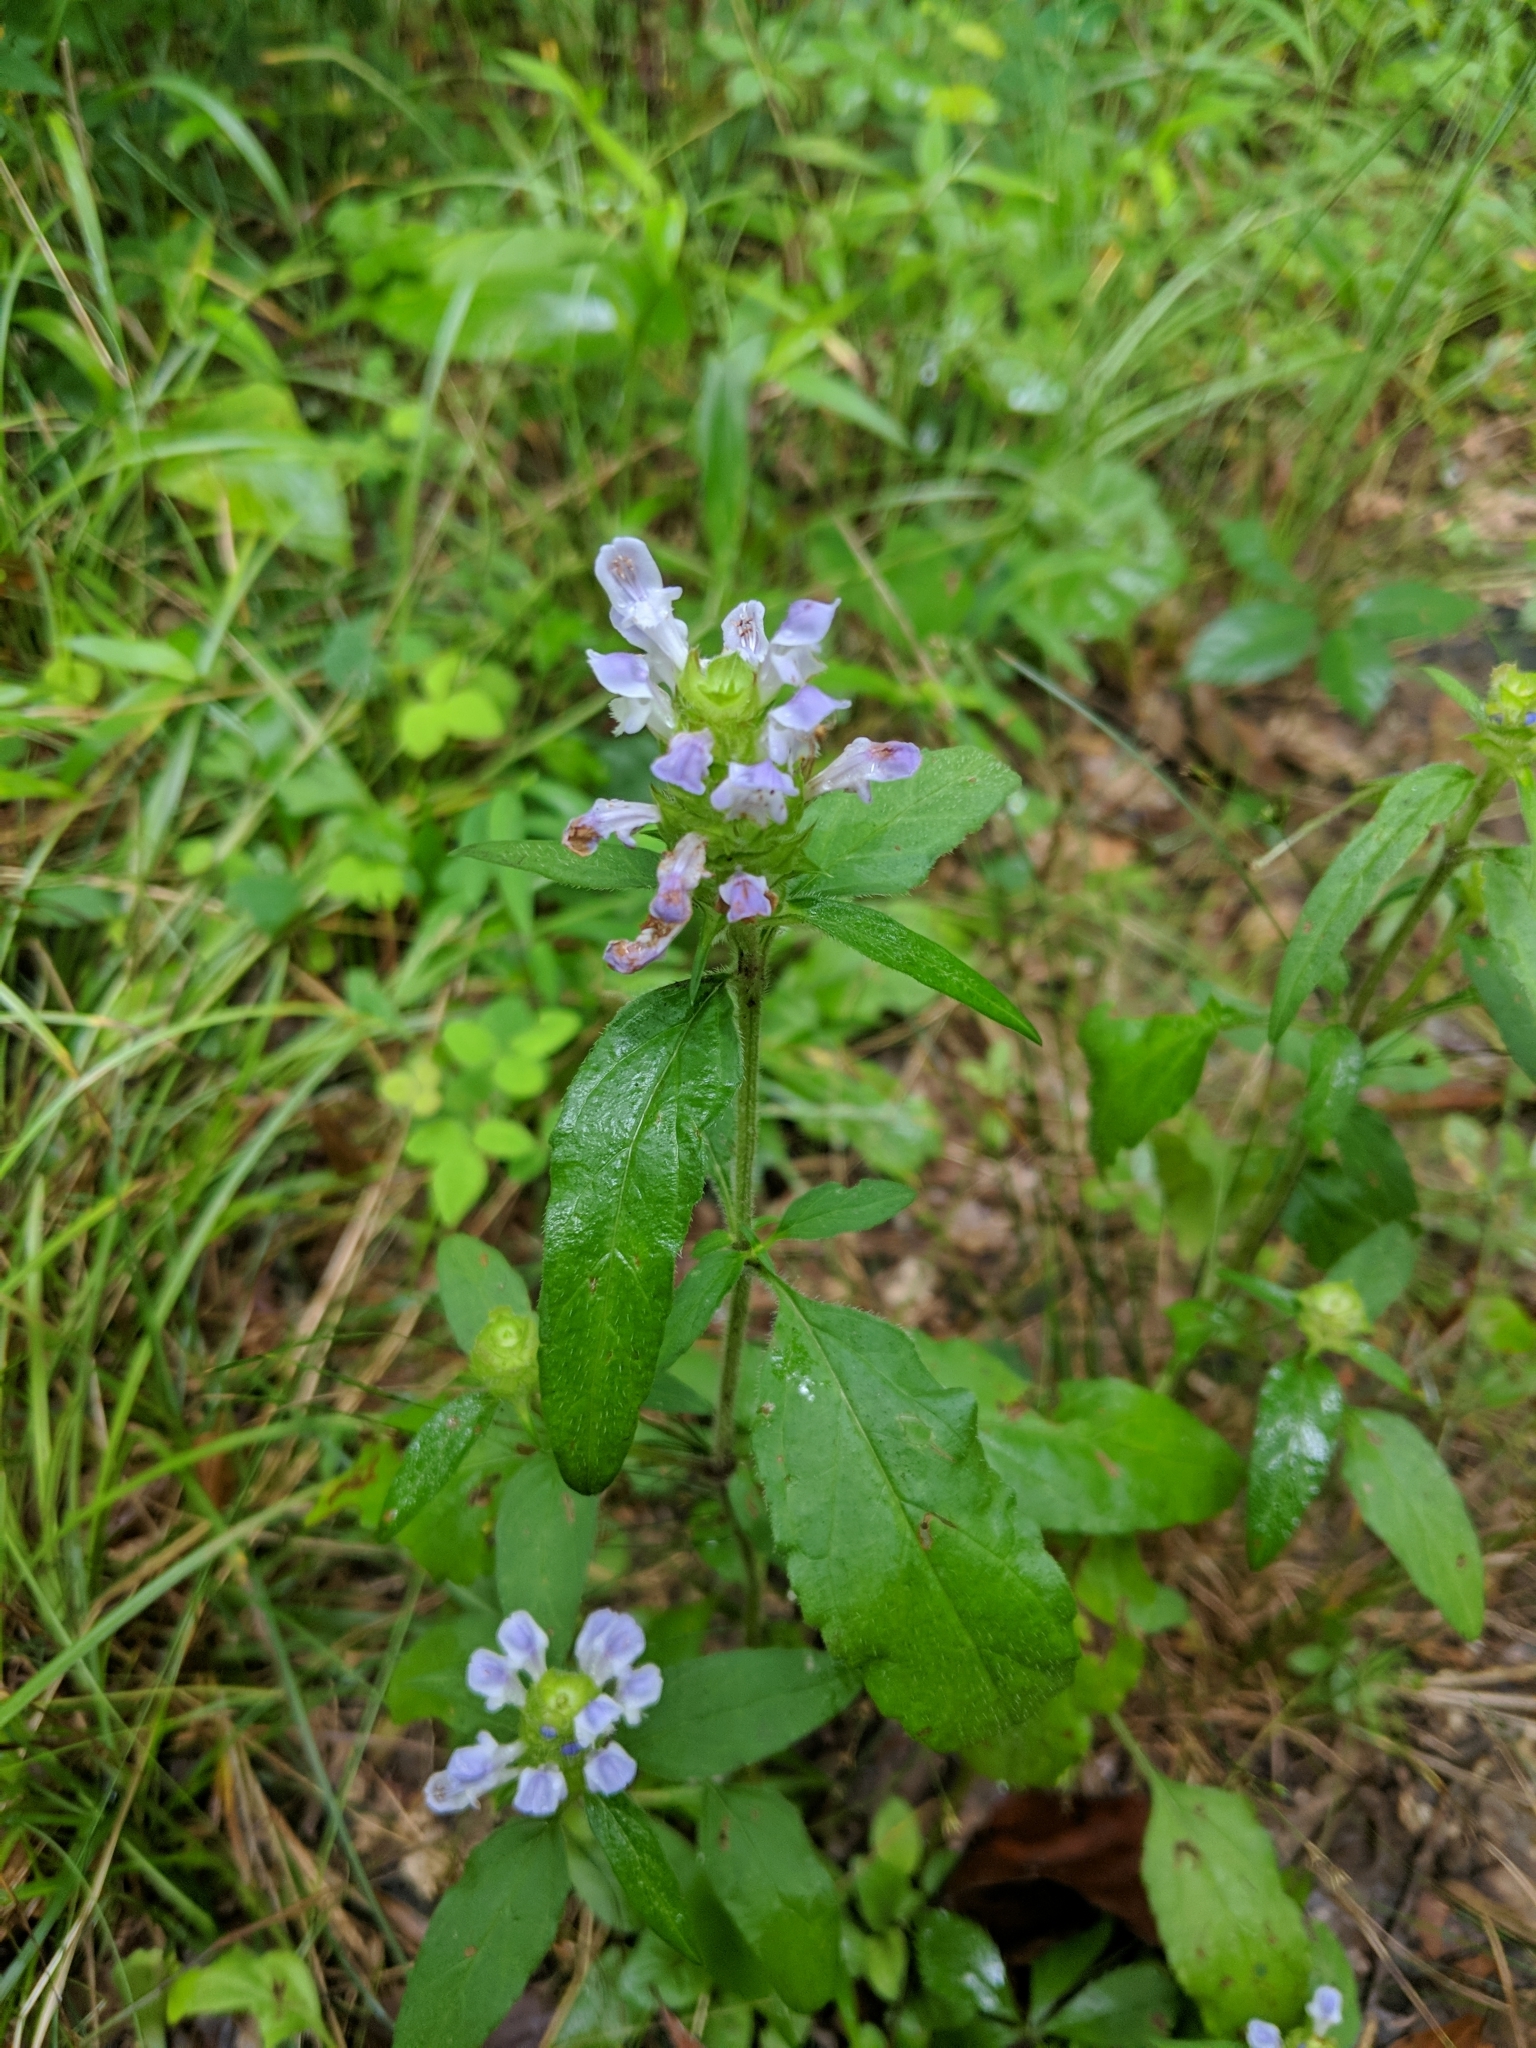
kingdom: Plantae
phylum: Tracheophyta
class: Magnoliopsida
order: Lamiales
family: Lamiaceae
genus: Prunella
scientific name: Prunella vulgaris
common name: Heal-all
